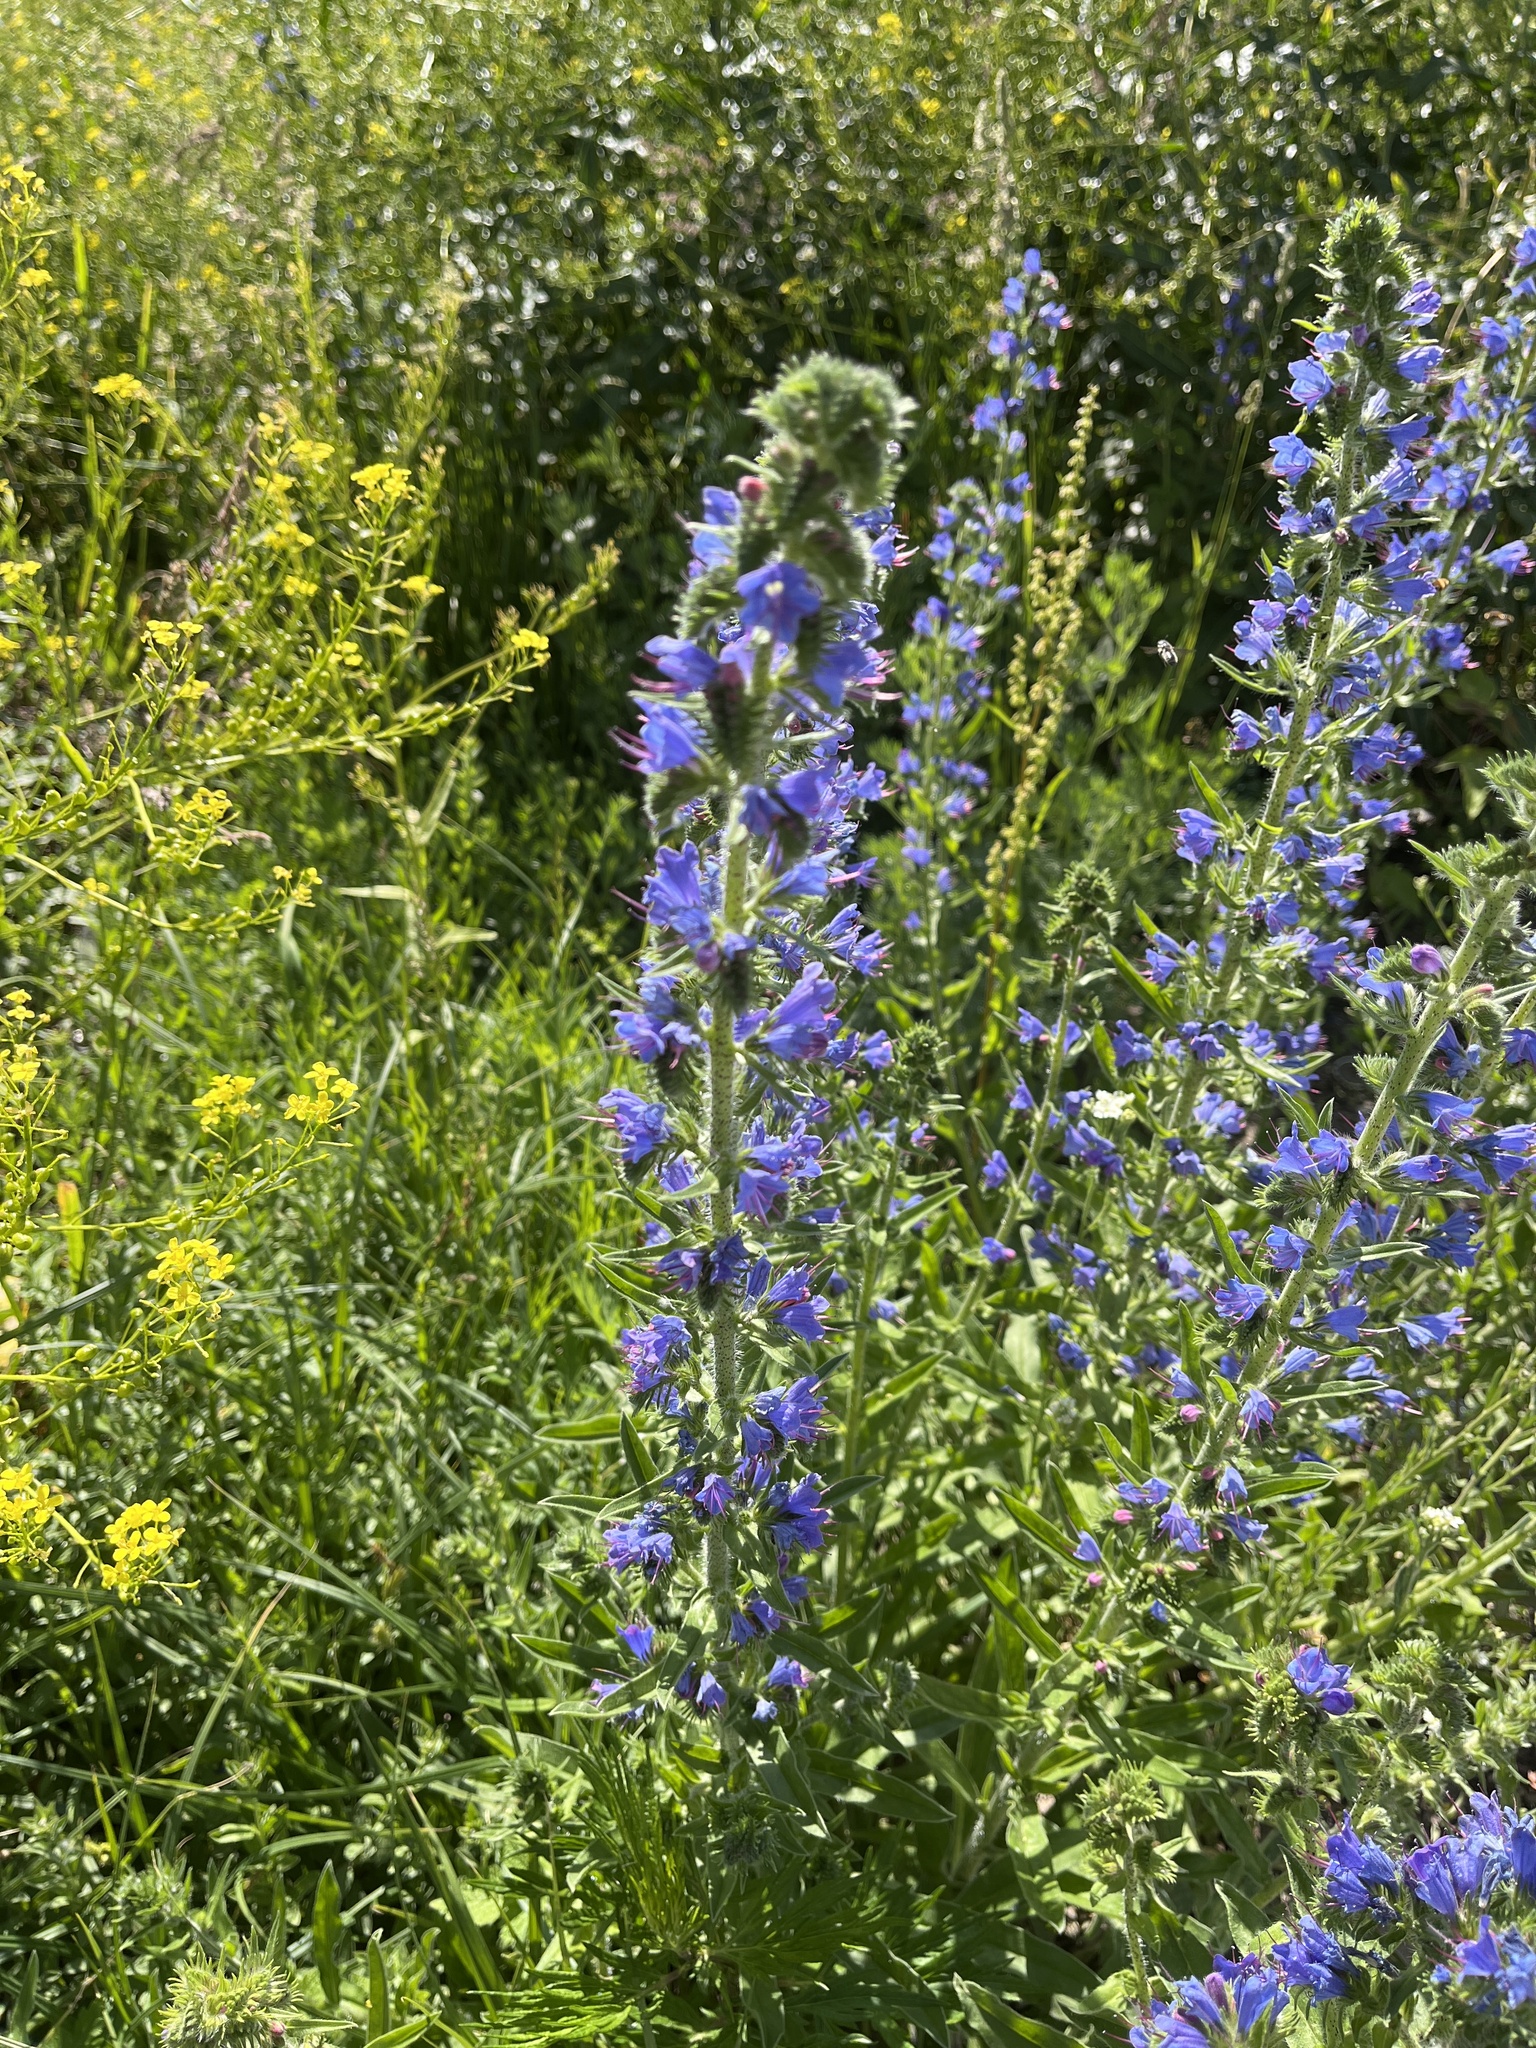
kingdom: Plantae
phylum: Tracheophyta
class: Magnoliopsida
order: Boraginales
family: Boraginaceae
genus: Echium
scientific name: Echium vulgare
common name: Common viper's bugloss
